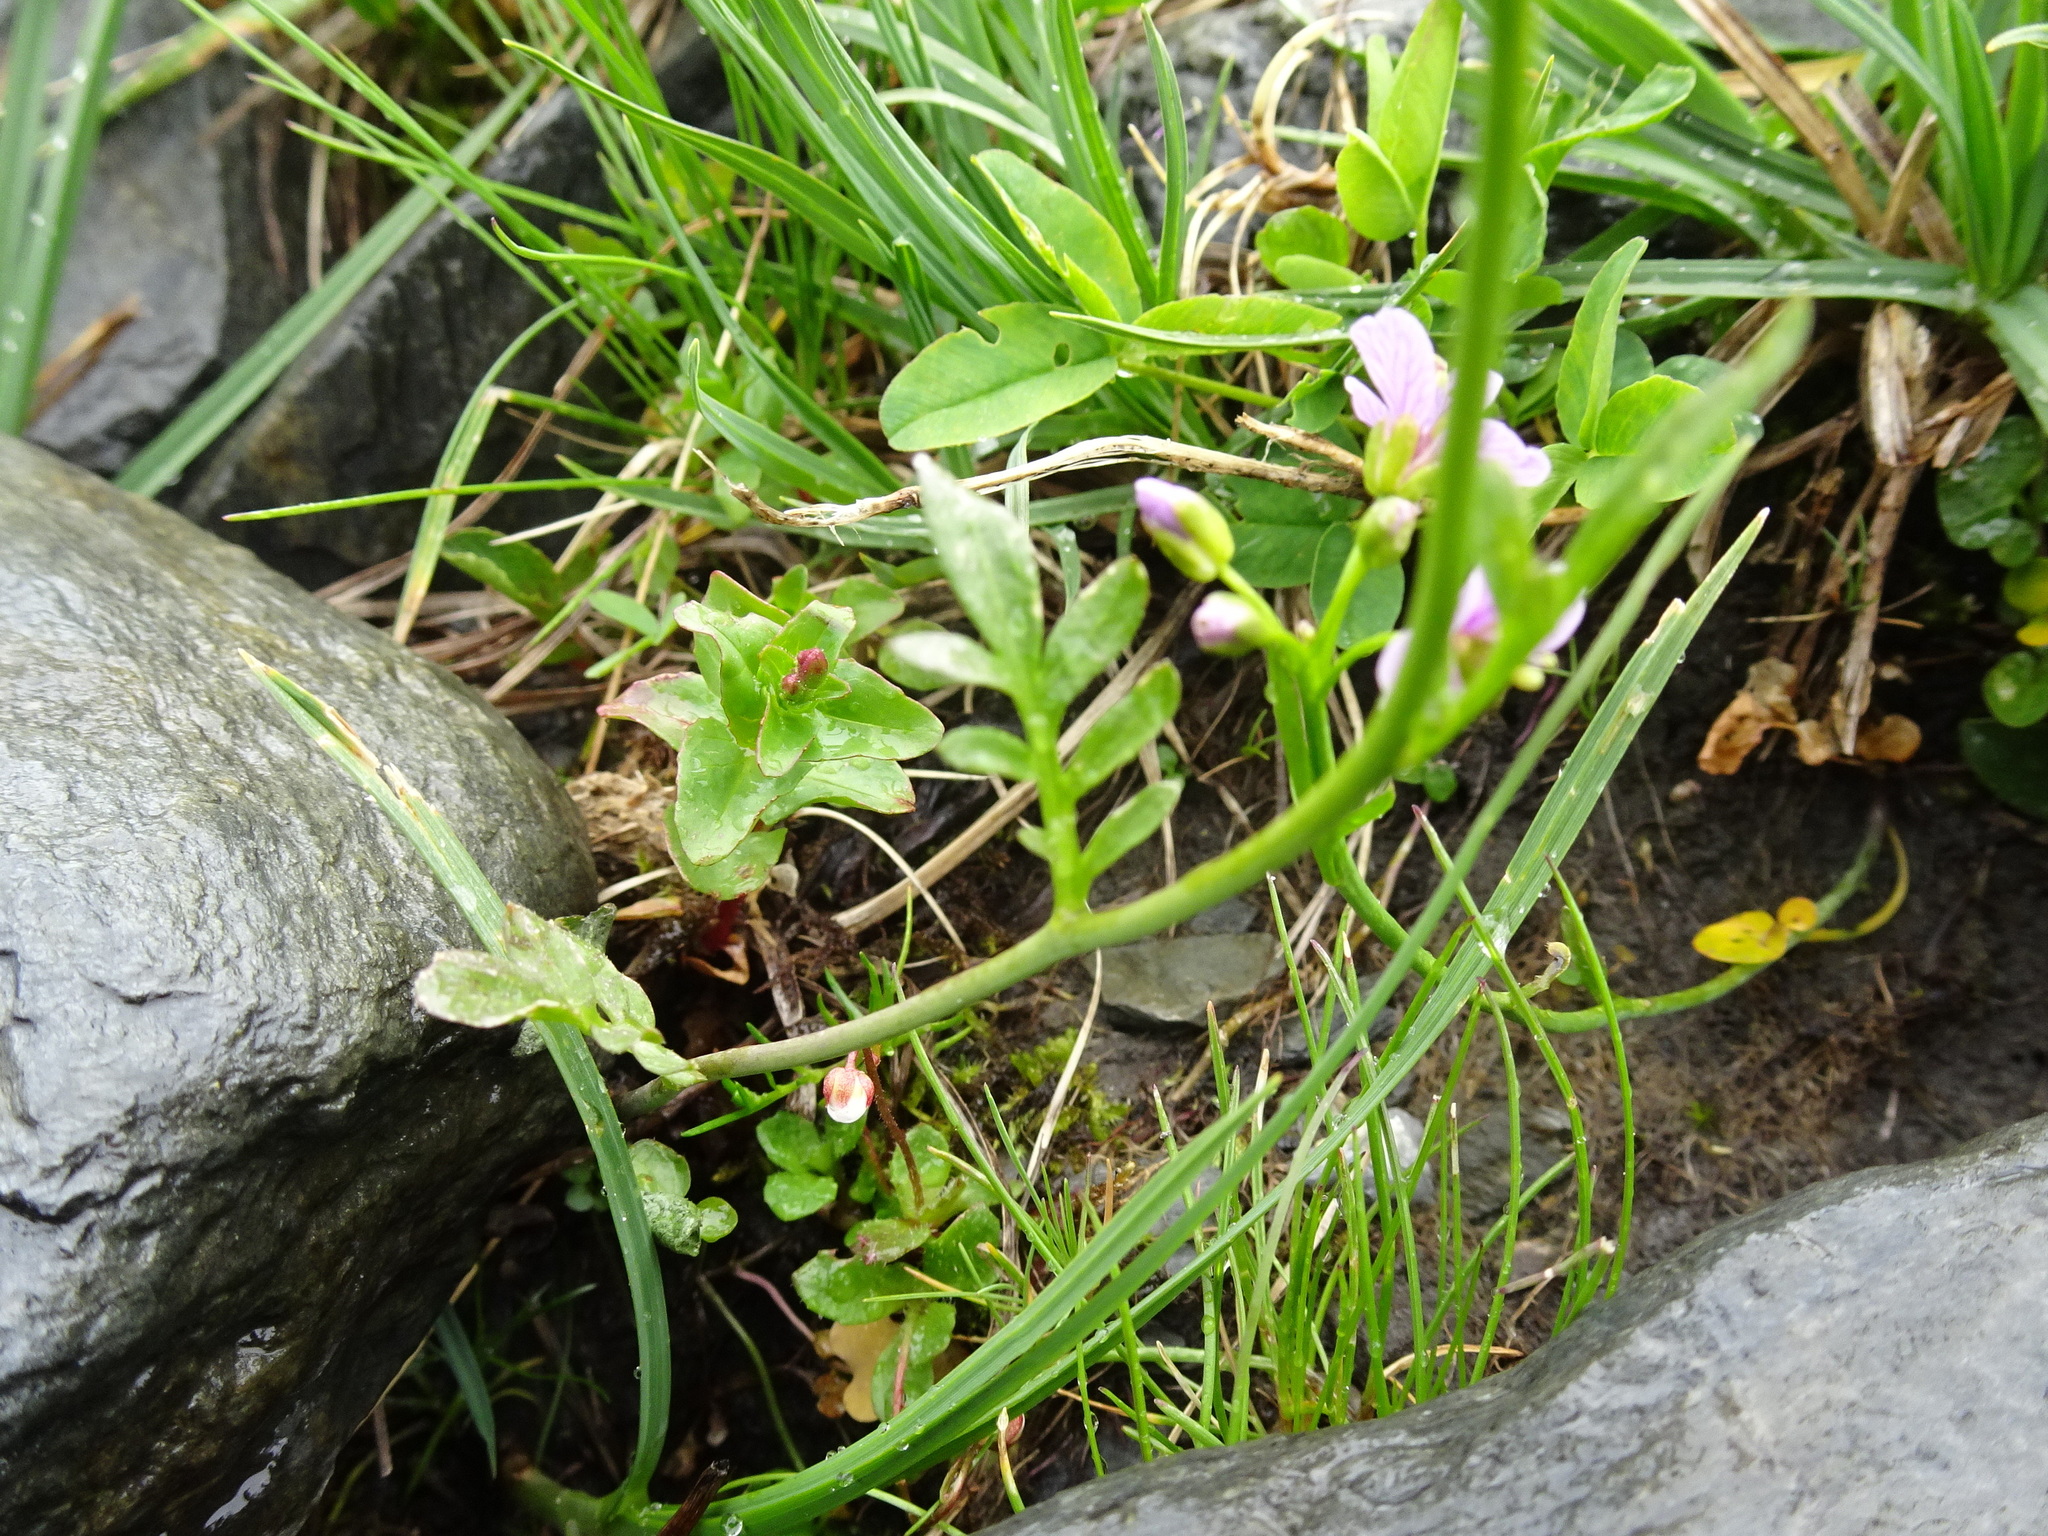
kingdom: Plantae
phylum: Tracheophyta
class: Magnoliopsida
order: Brassicales
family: Brassicaceae
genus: Cardamine
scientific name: Cardamine pratensis
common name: Cuckoo flower
